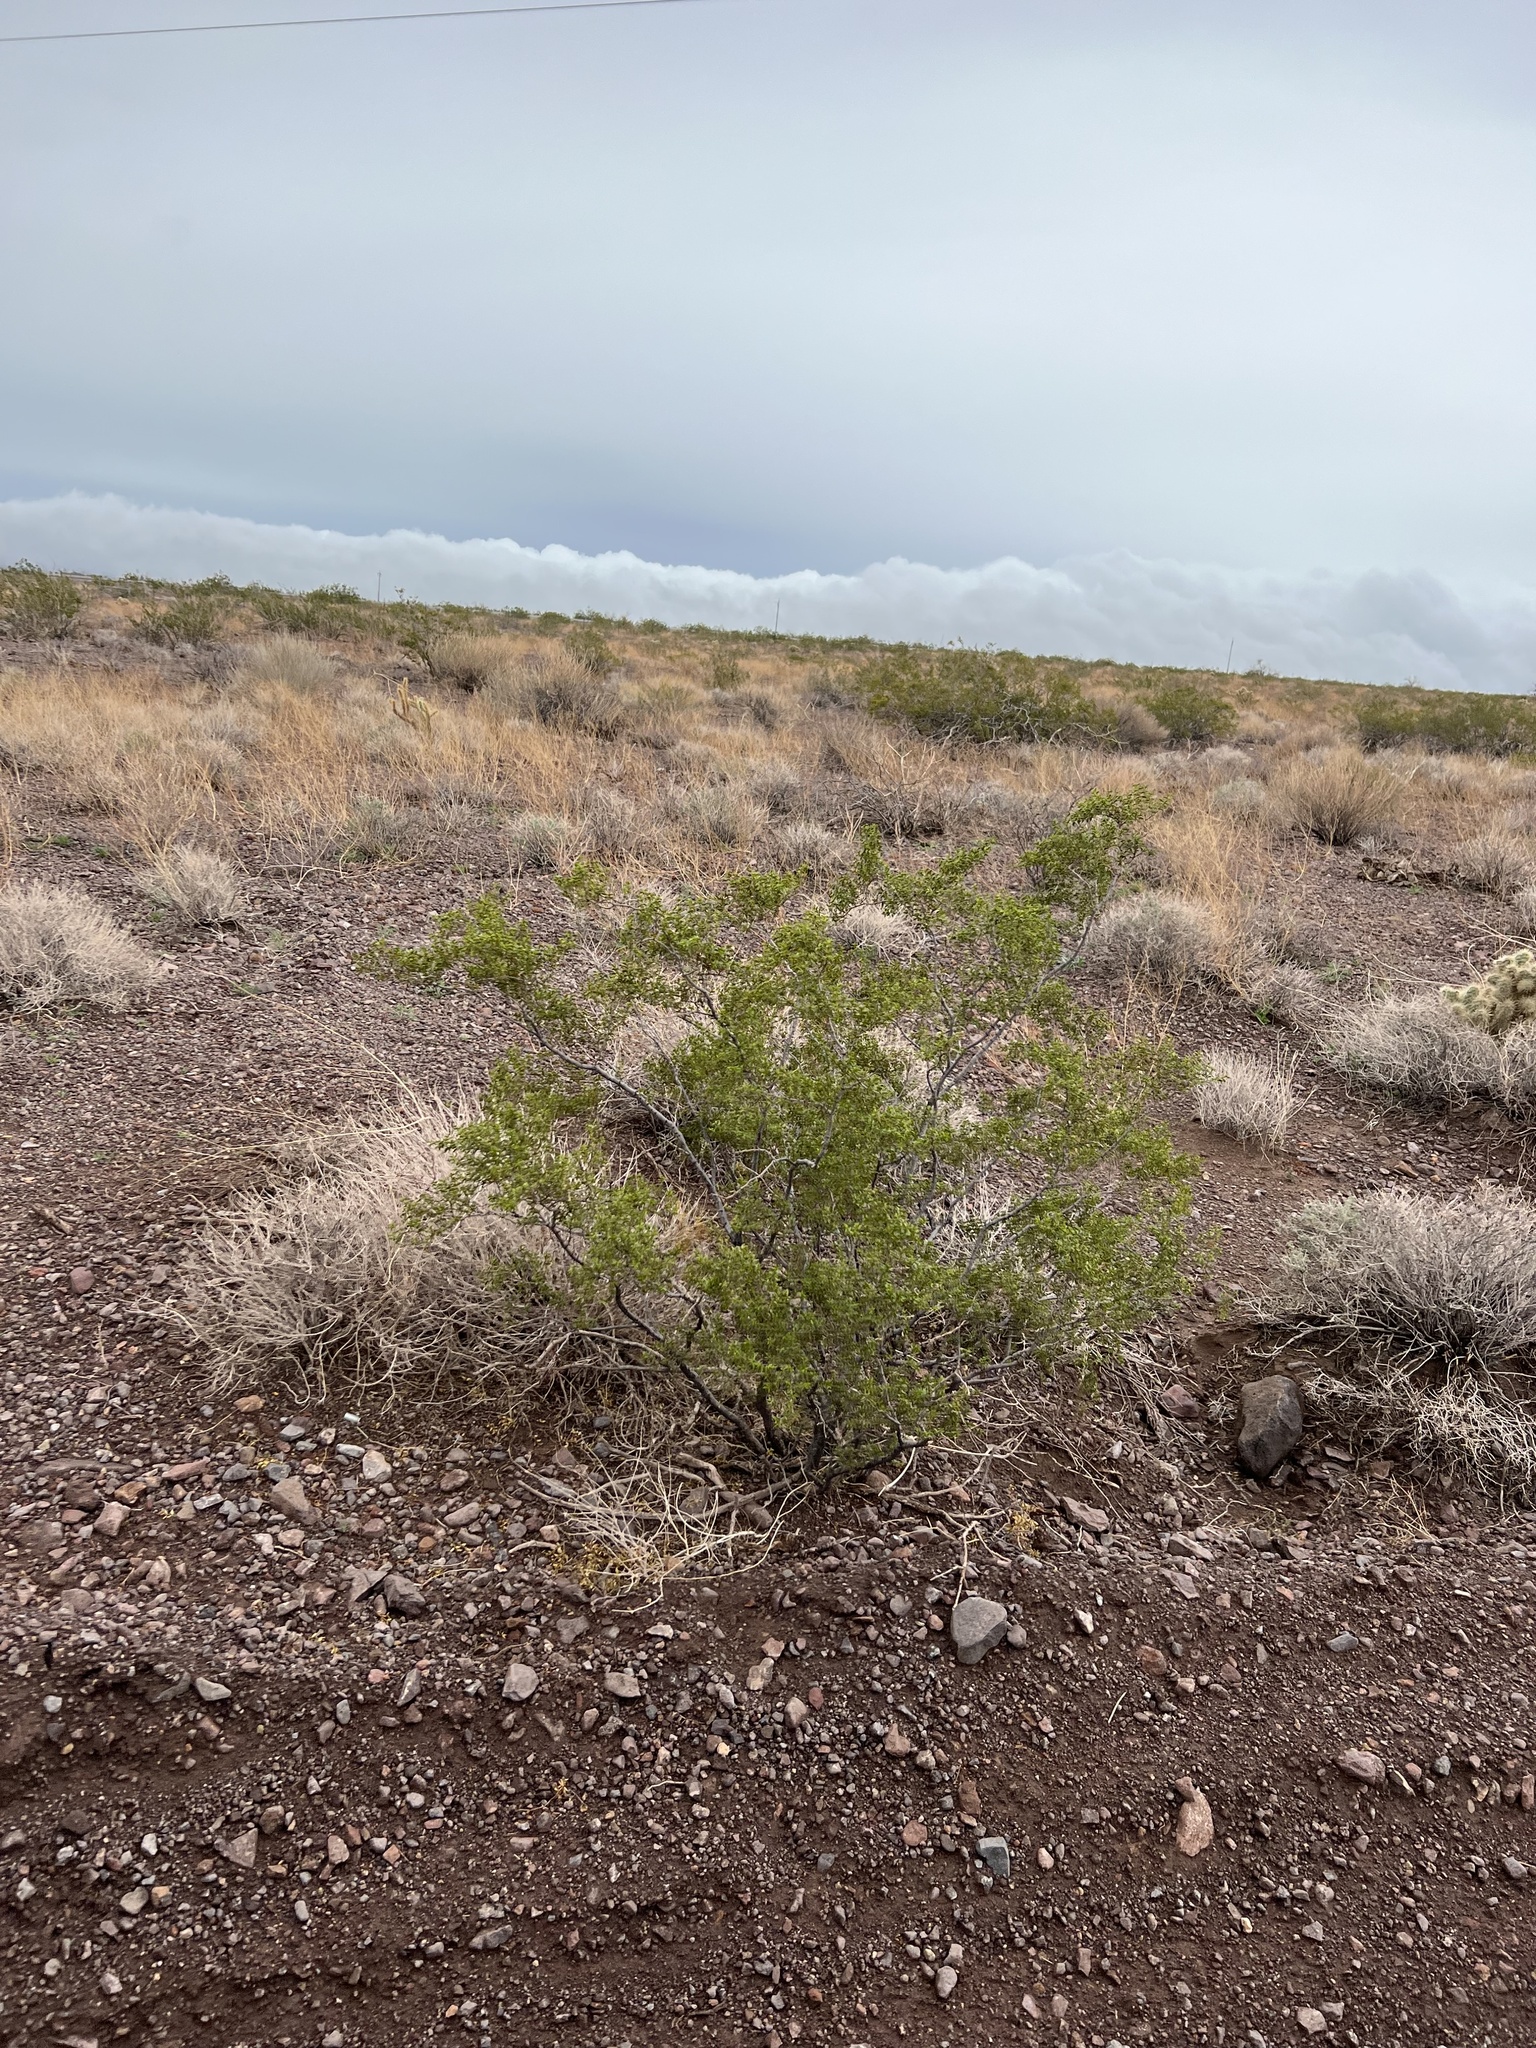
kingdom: Plantae
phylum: Tracheophyta
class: Magnoliopsida
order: Zygophyllales
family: Zygophyllaceae
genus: Larrea
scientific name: Larrea tridentata
